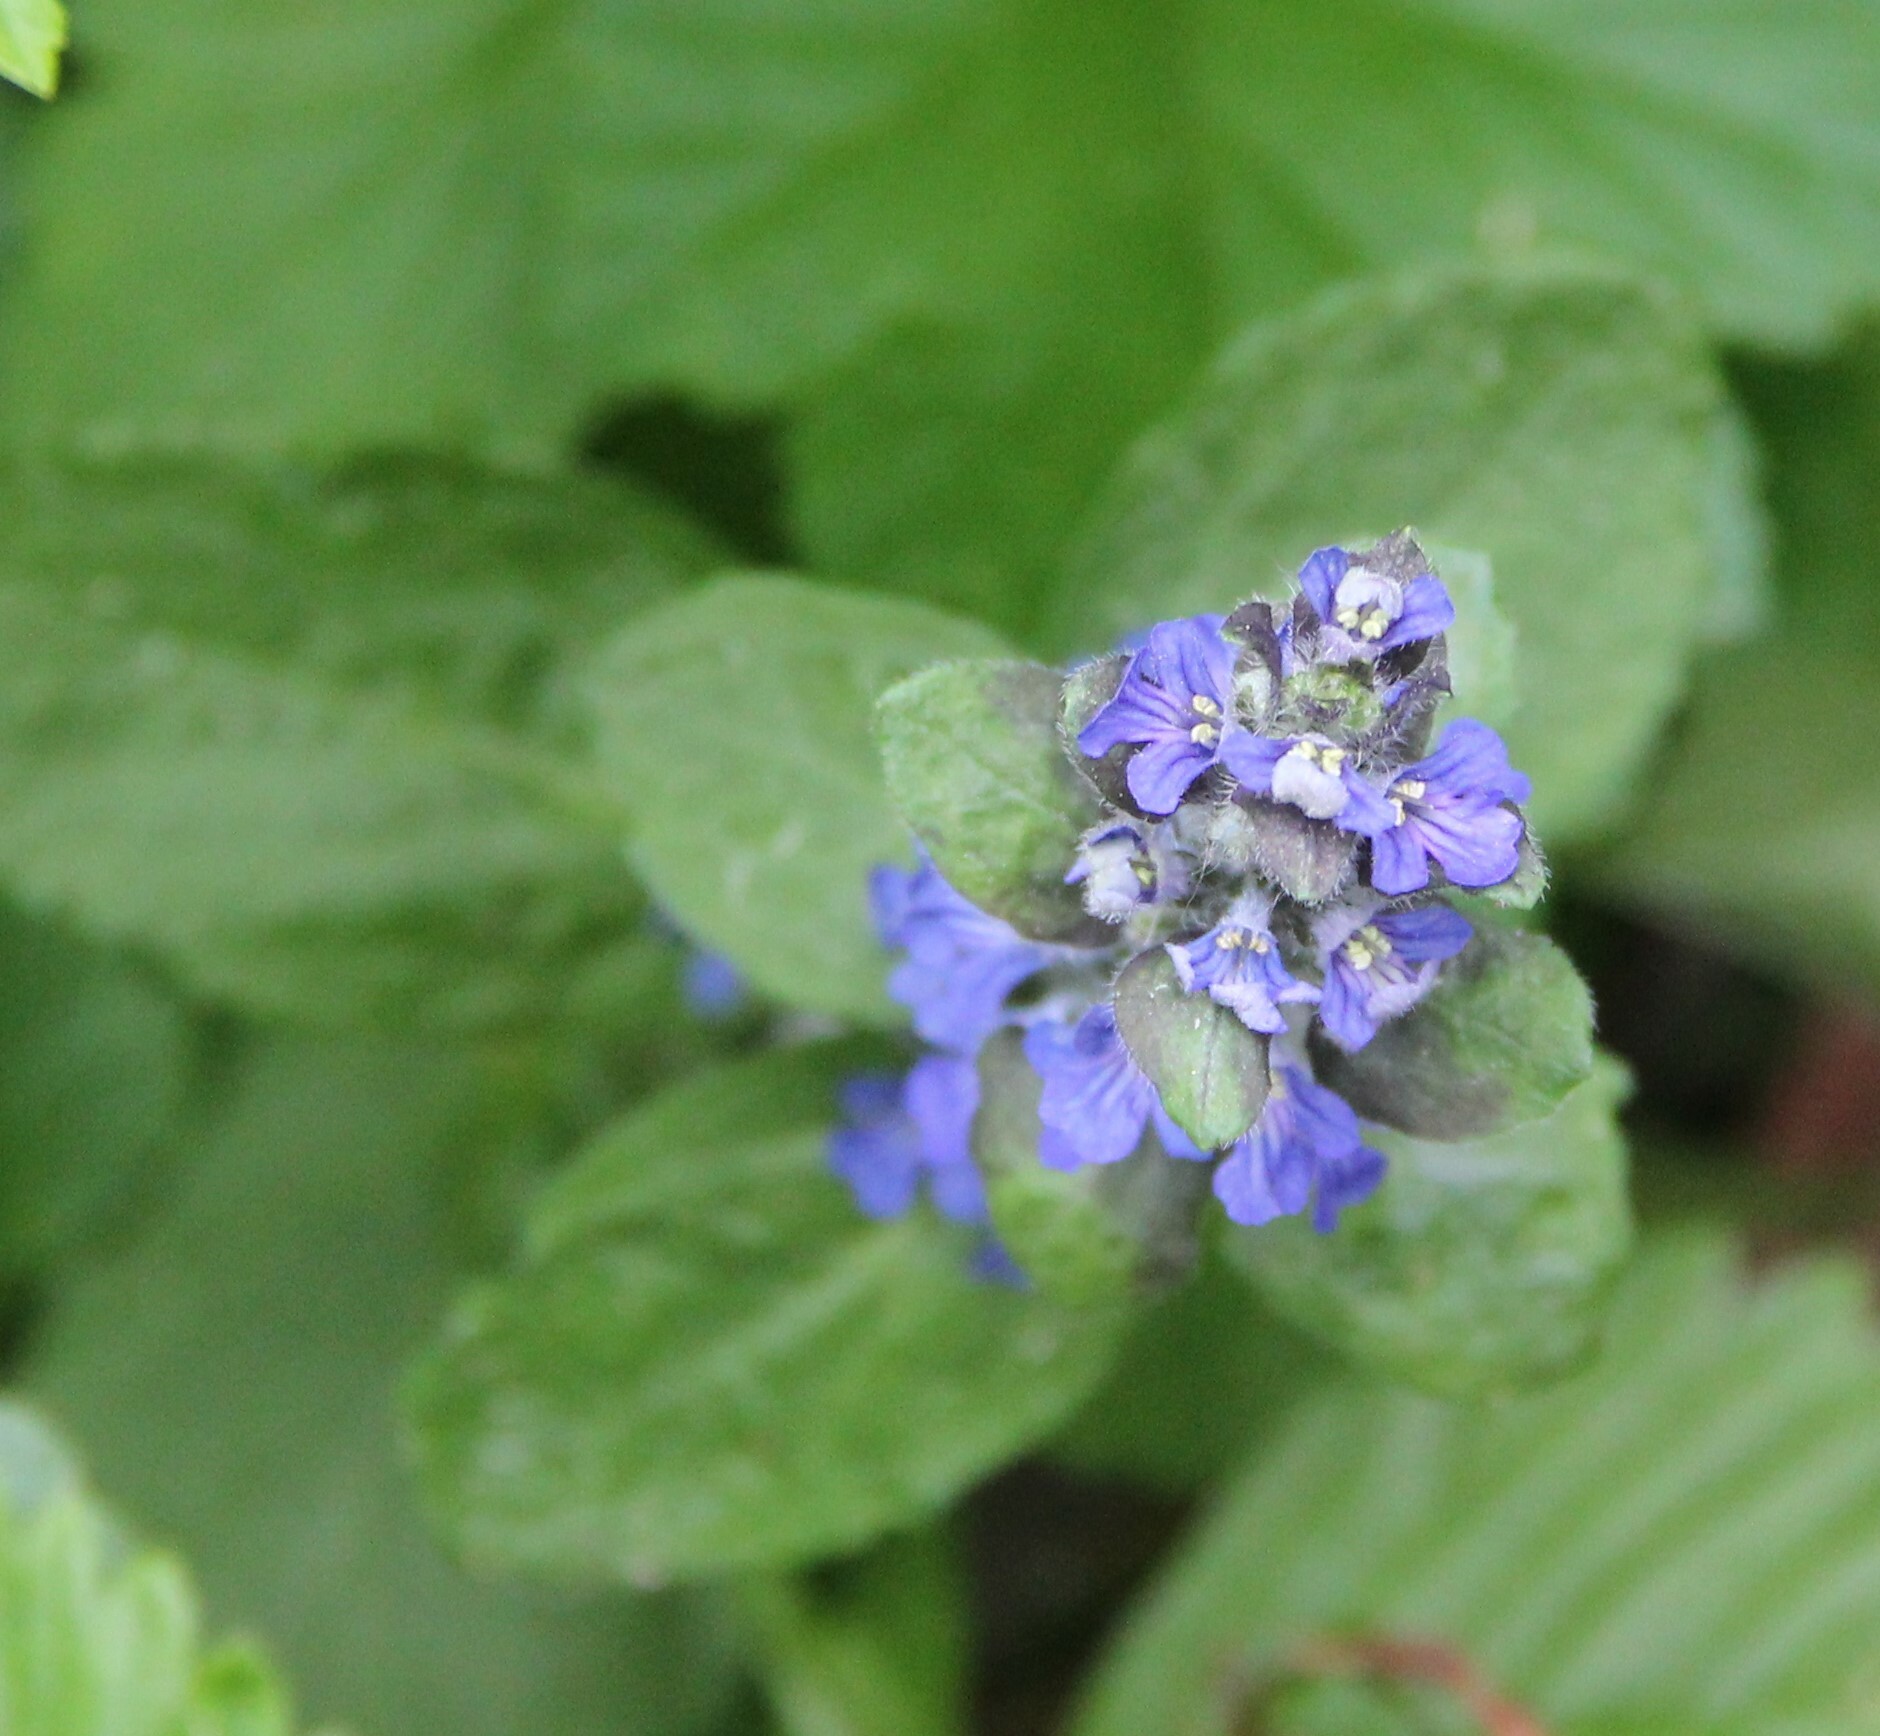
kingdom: Plantae
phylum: Tracheophyta
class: Magnoliopsida
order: Lamiales
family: Lamiaceae
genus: Ajuga
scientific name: Ajuga reptans
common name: Bugle
